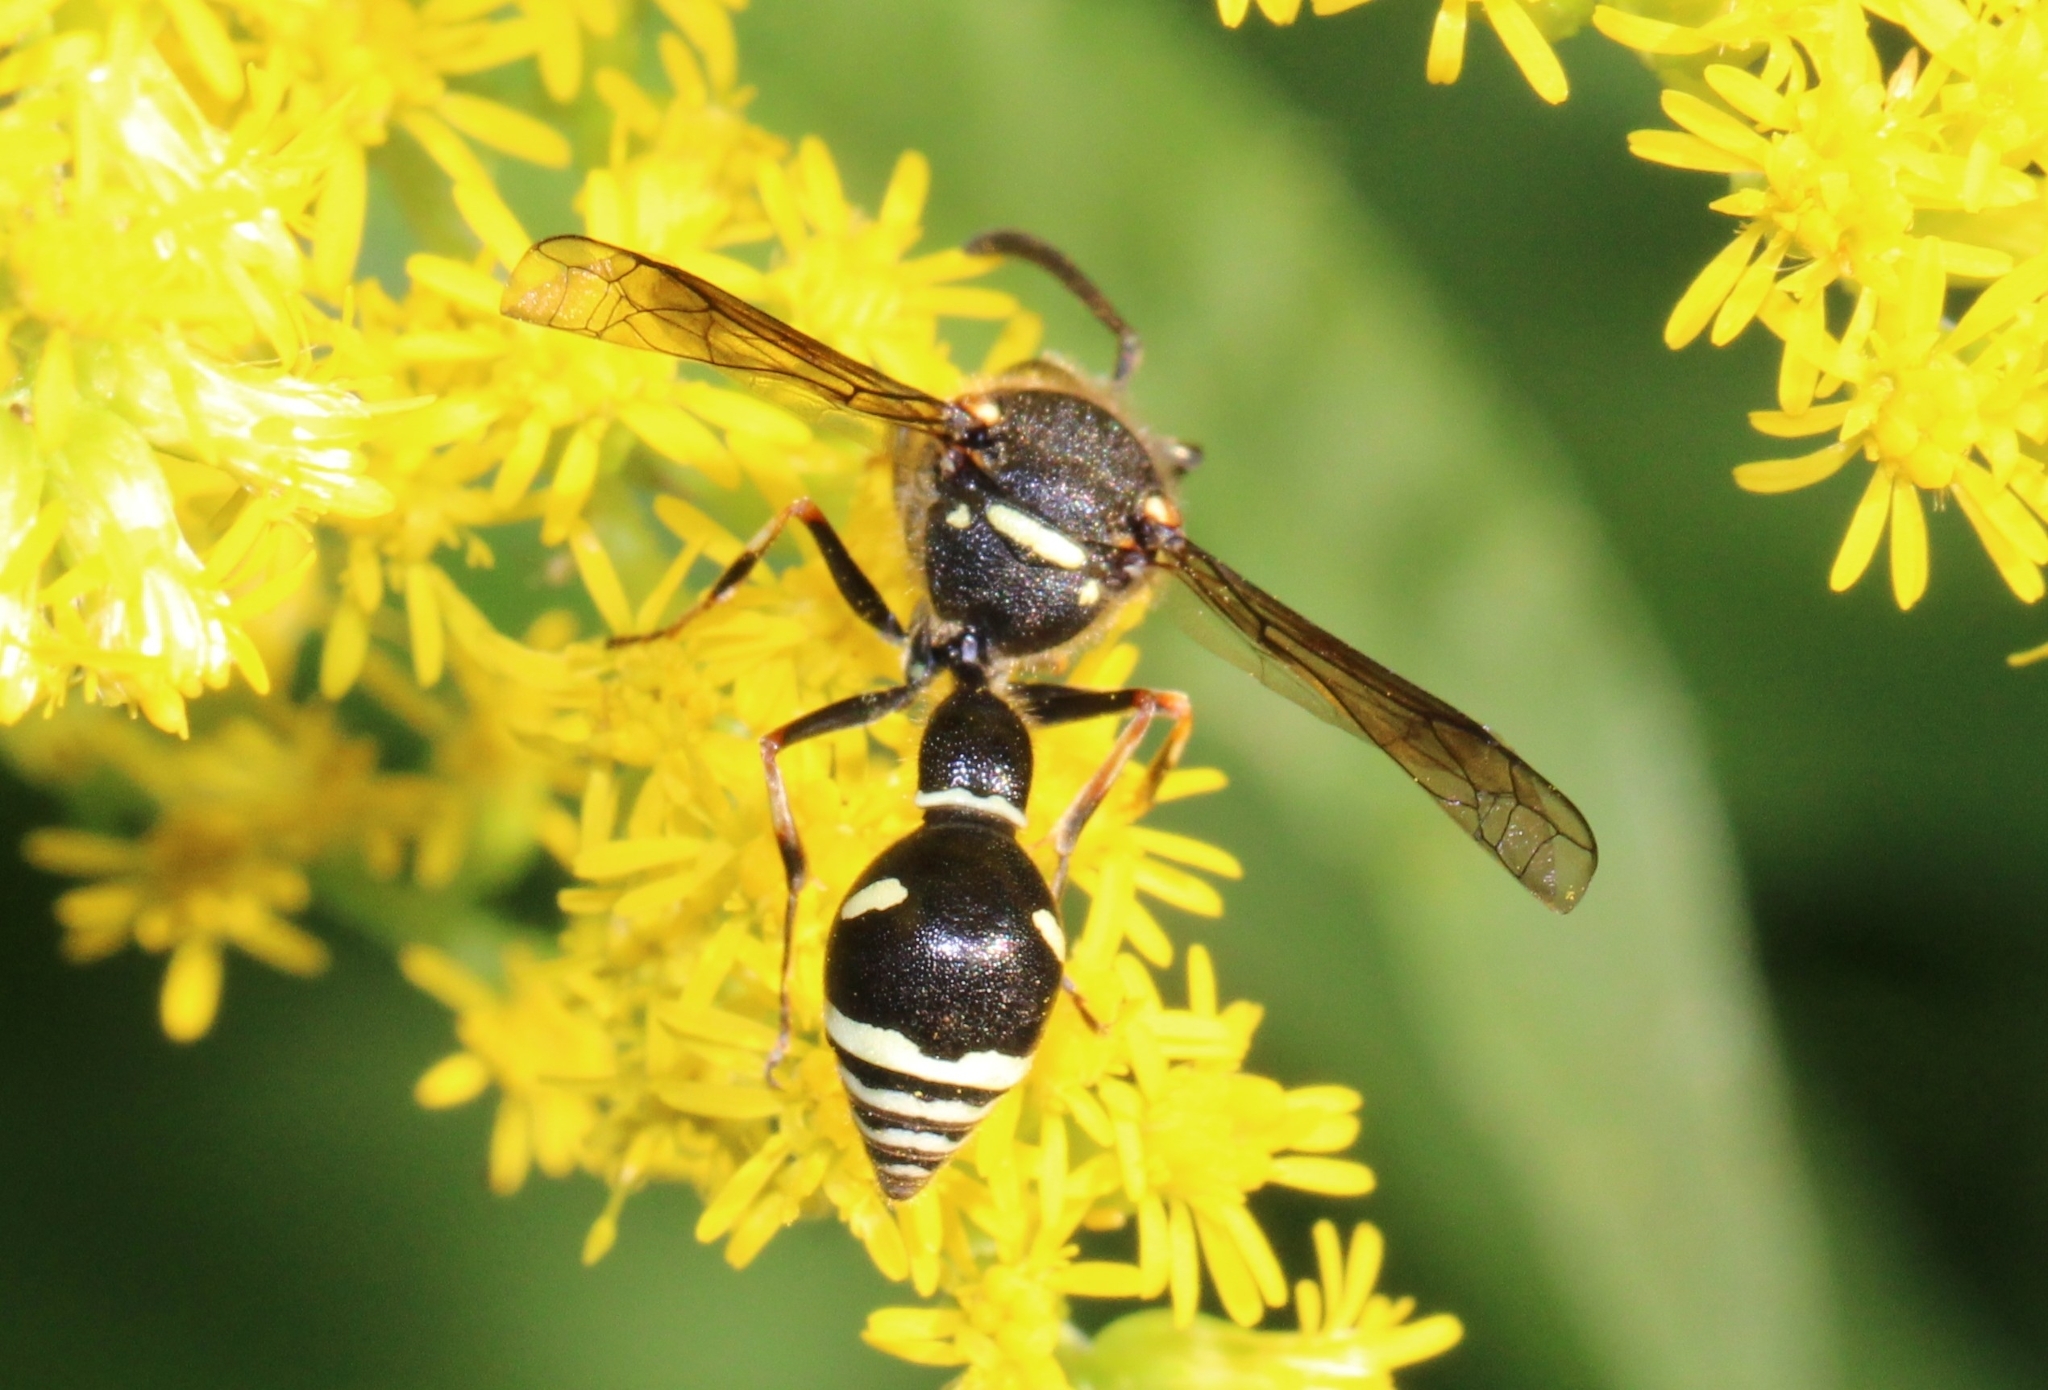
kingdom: Animalia
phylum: Arthropoda
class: Insecta
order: Hymenoptera
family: Vespidae
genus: Eumenes
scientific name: Eumenes crucifera
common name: Cross potter wasp
